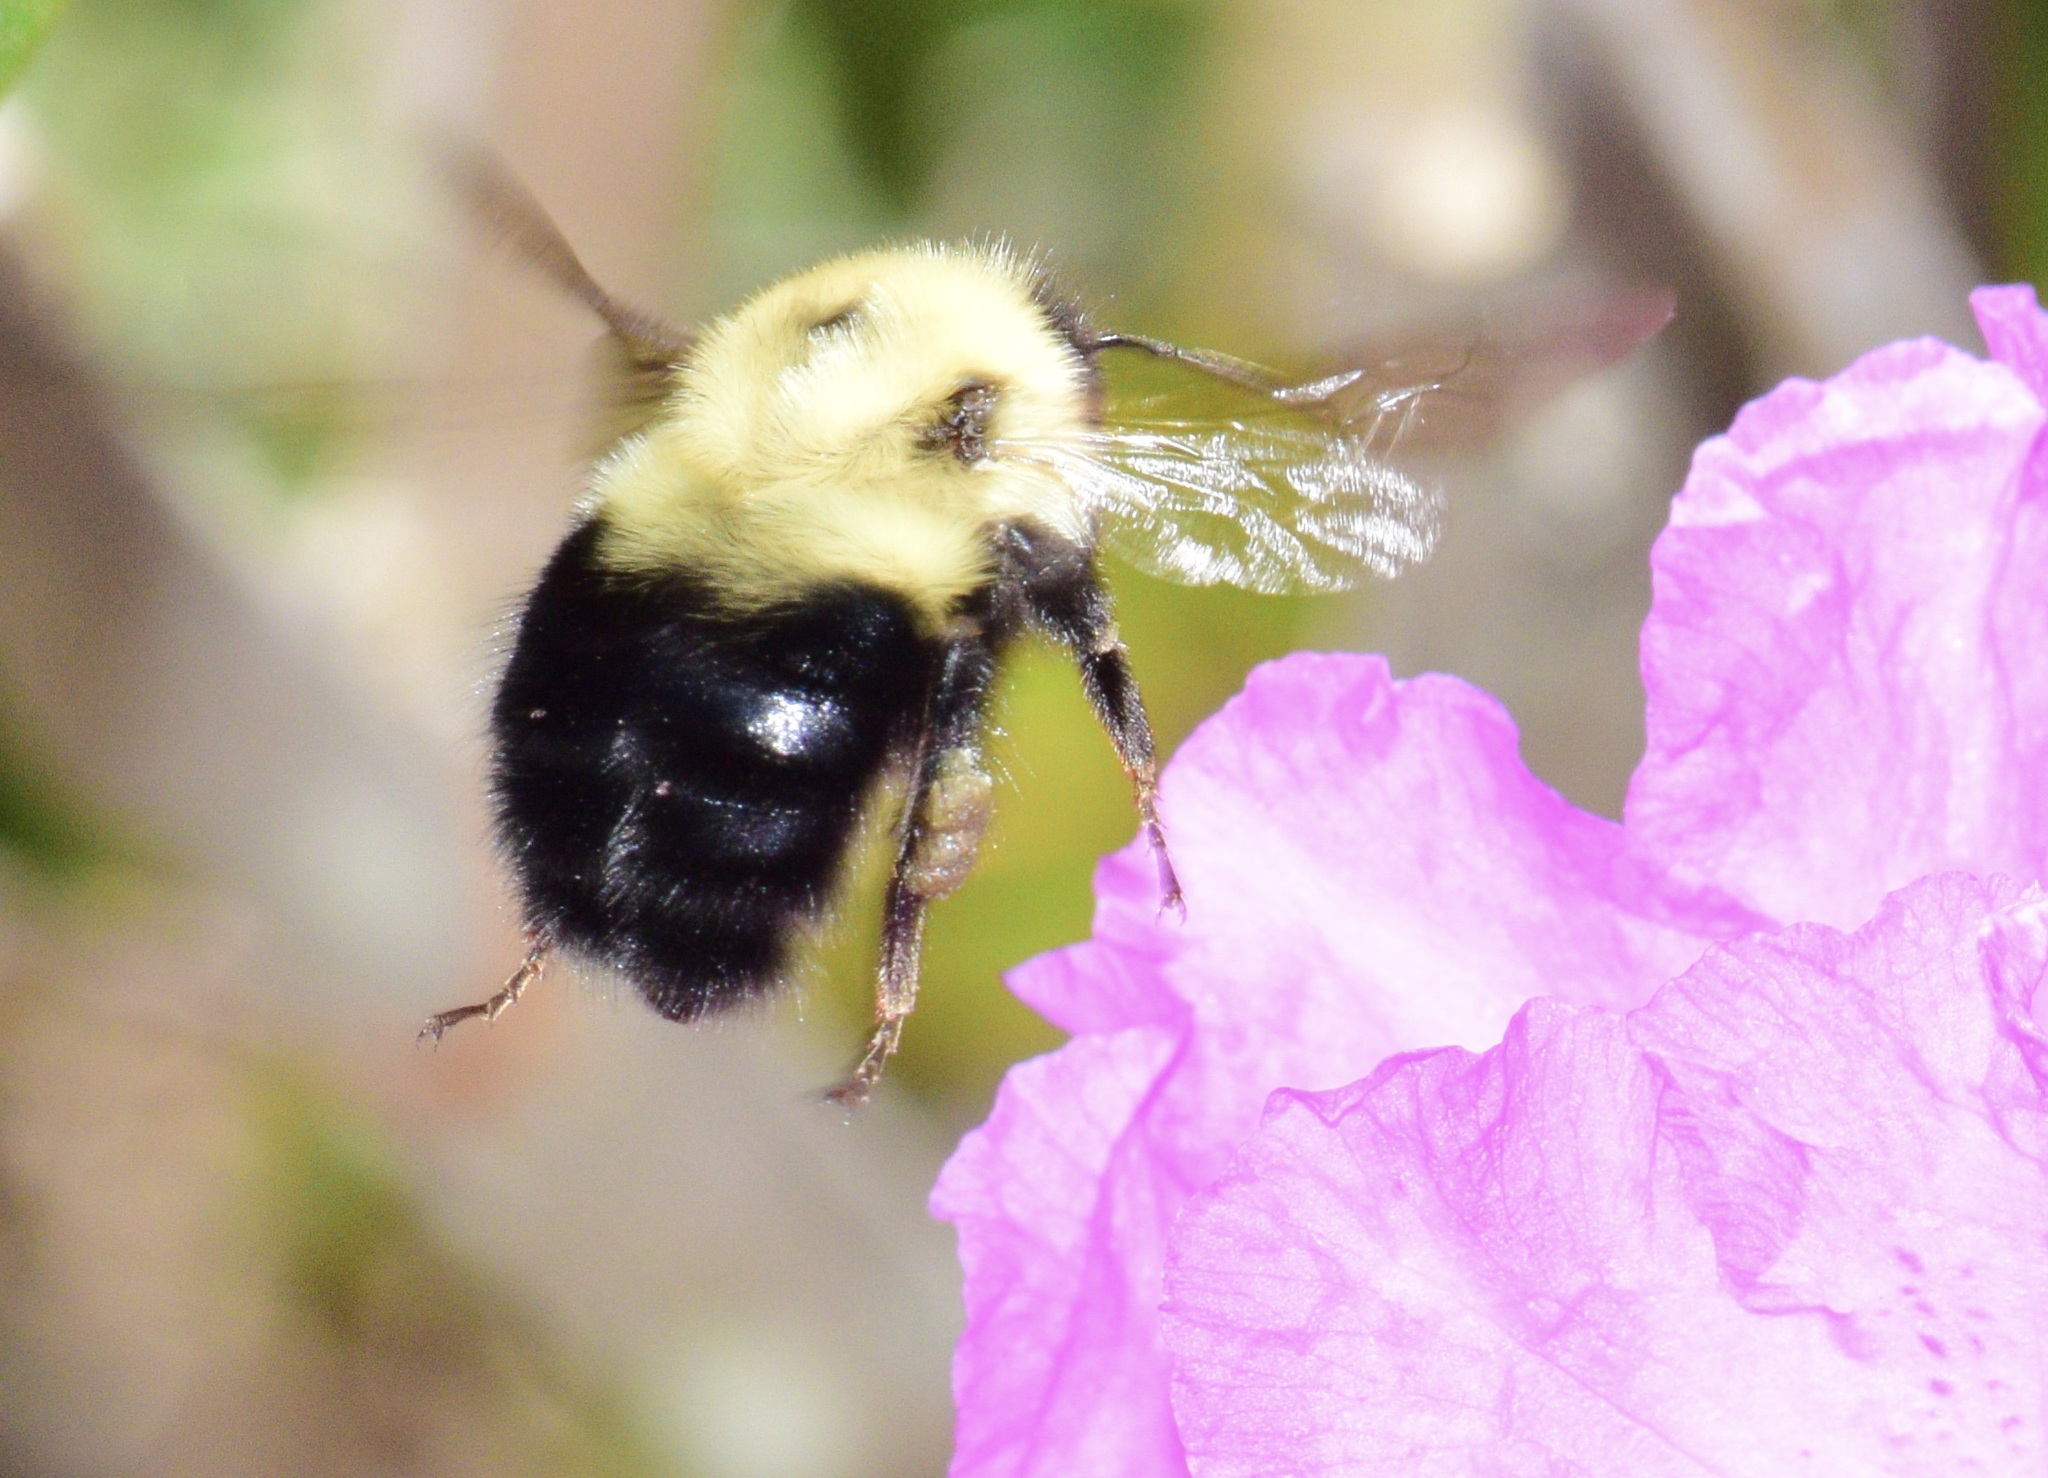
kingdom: Animalia
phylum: Arthropoda
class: Insecta
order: Hymenoptera
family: Apidae
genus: Bombus
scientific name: Bombus bimaculatus
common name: Two-spotted bumble bee
